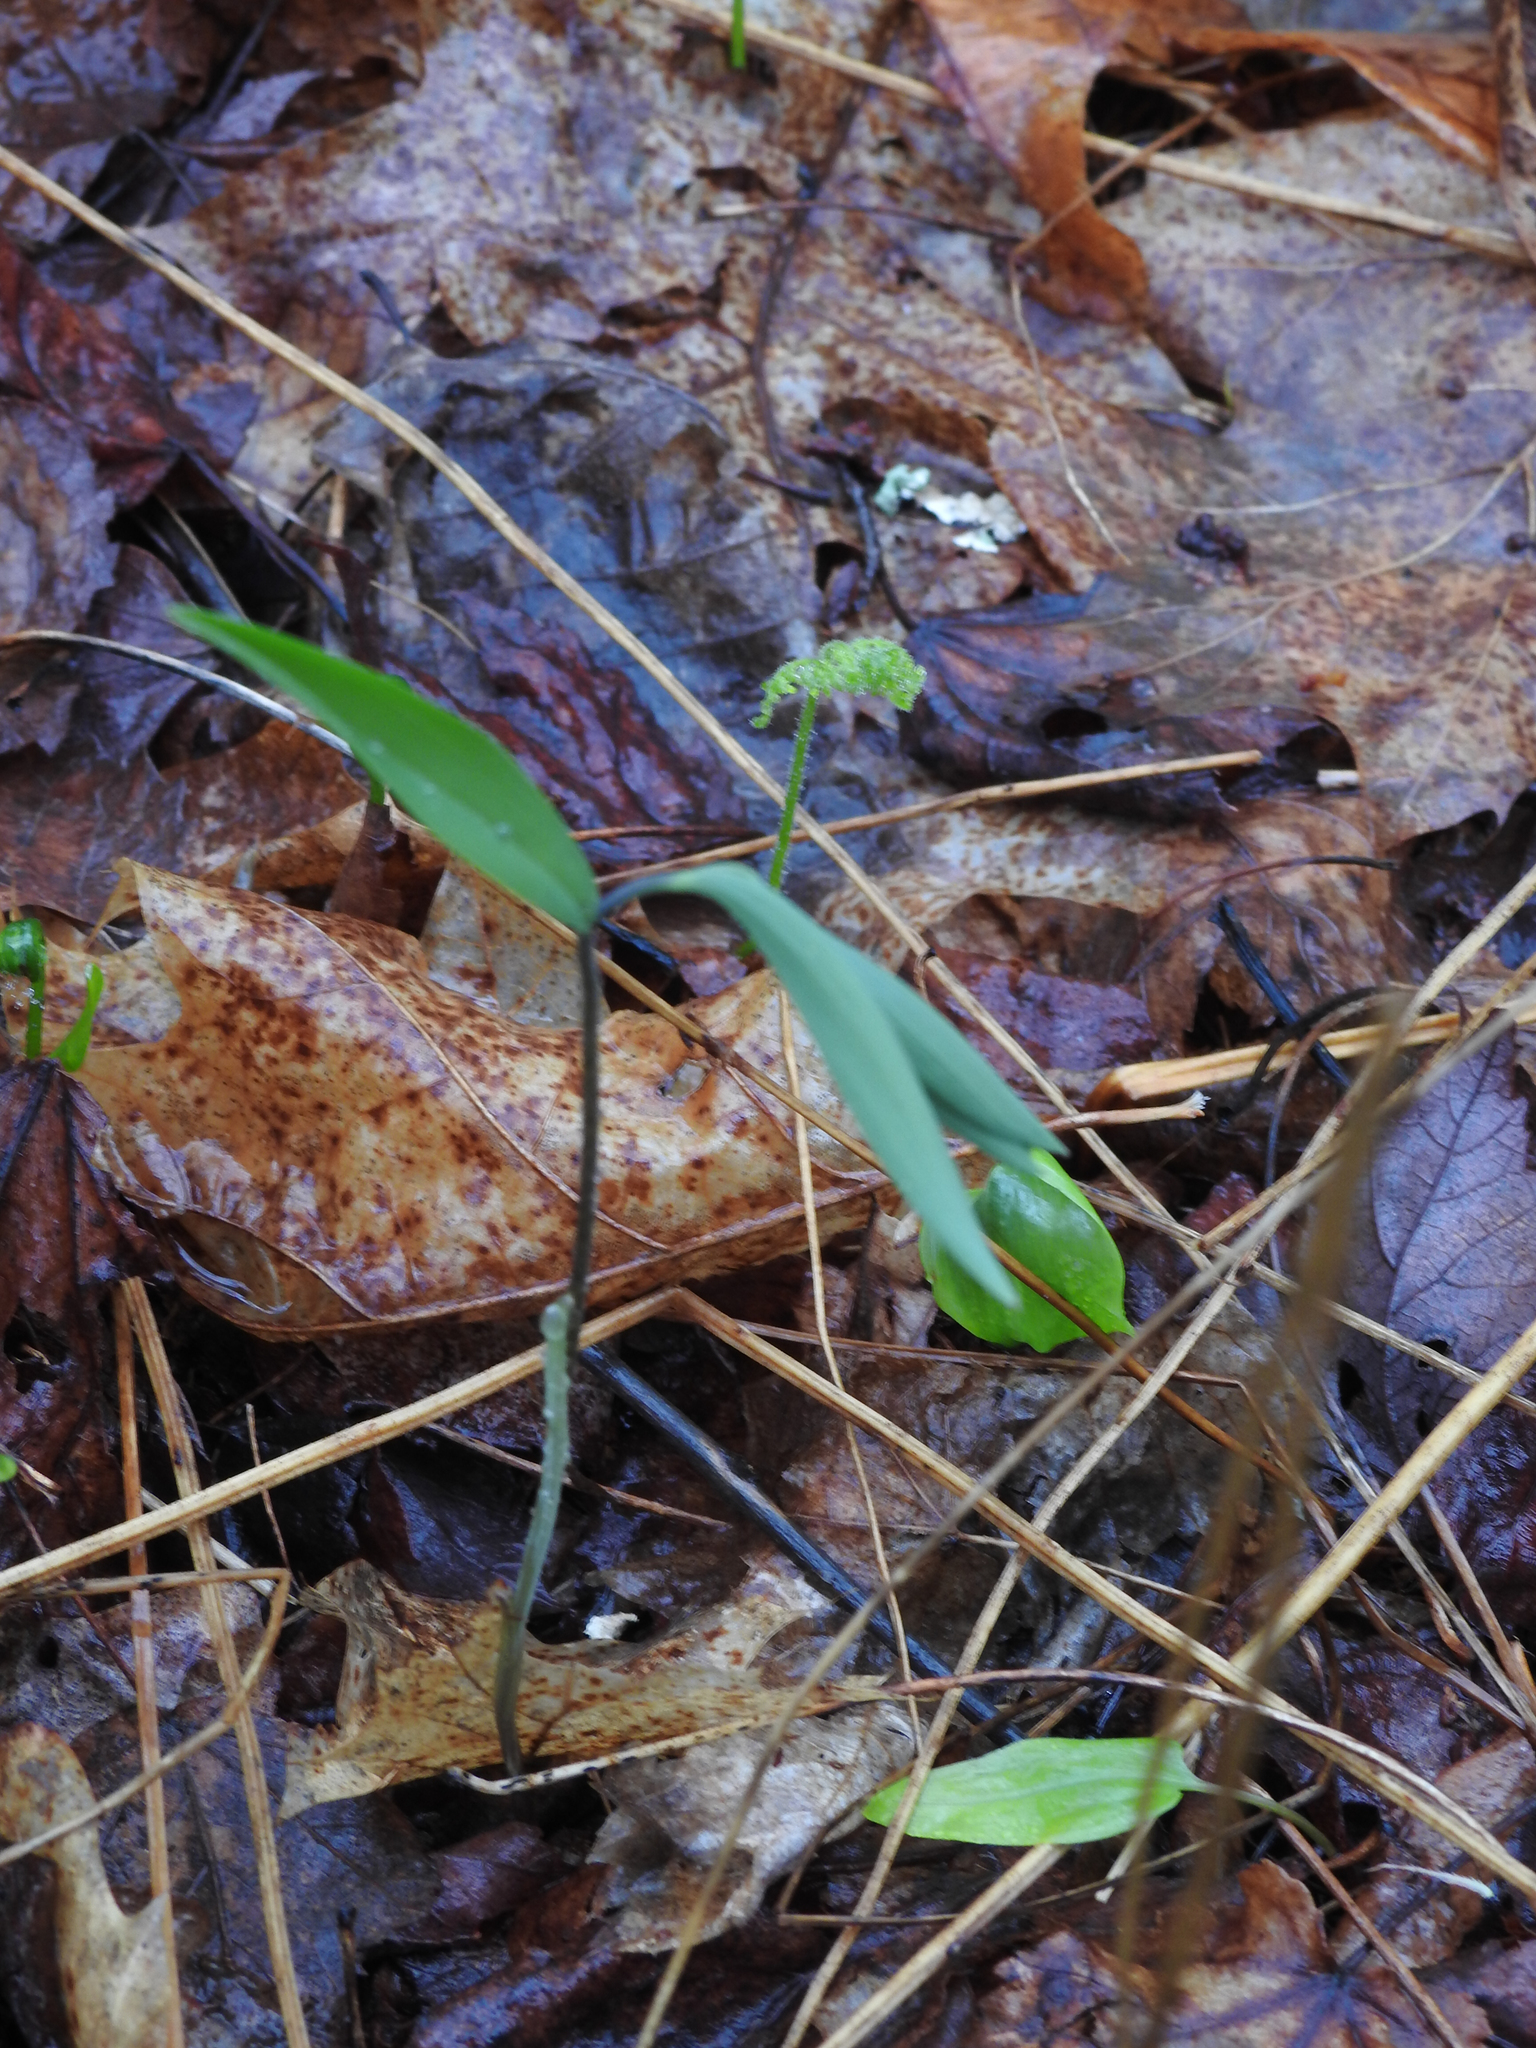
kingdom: Plantae
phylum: Tracheophyta
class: Liliopsida
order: Liliales
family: Colchicaceae
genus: Uvularia
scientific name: Uvularia sessilifolia
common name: Straw-lily
